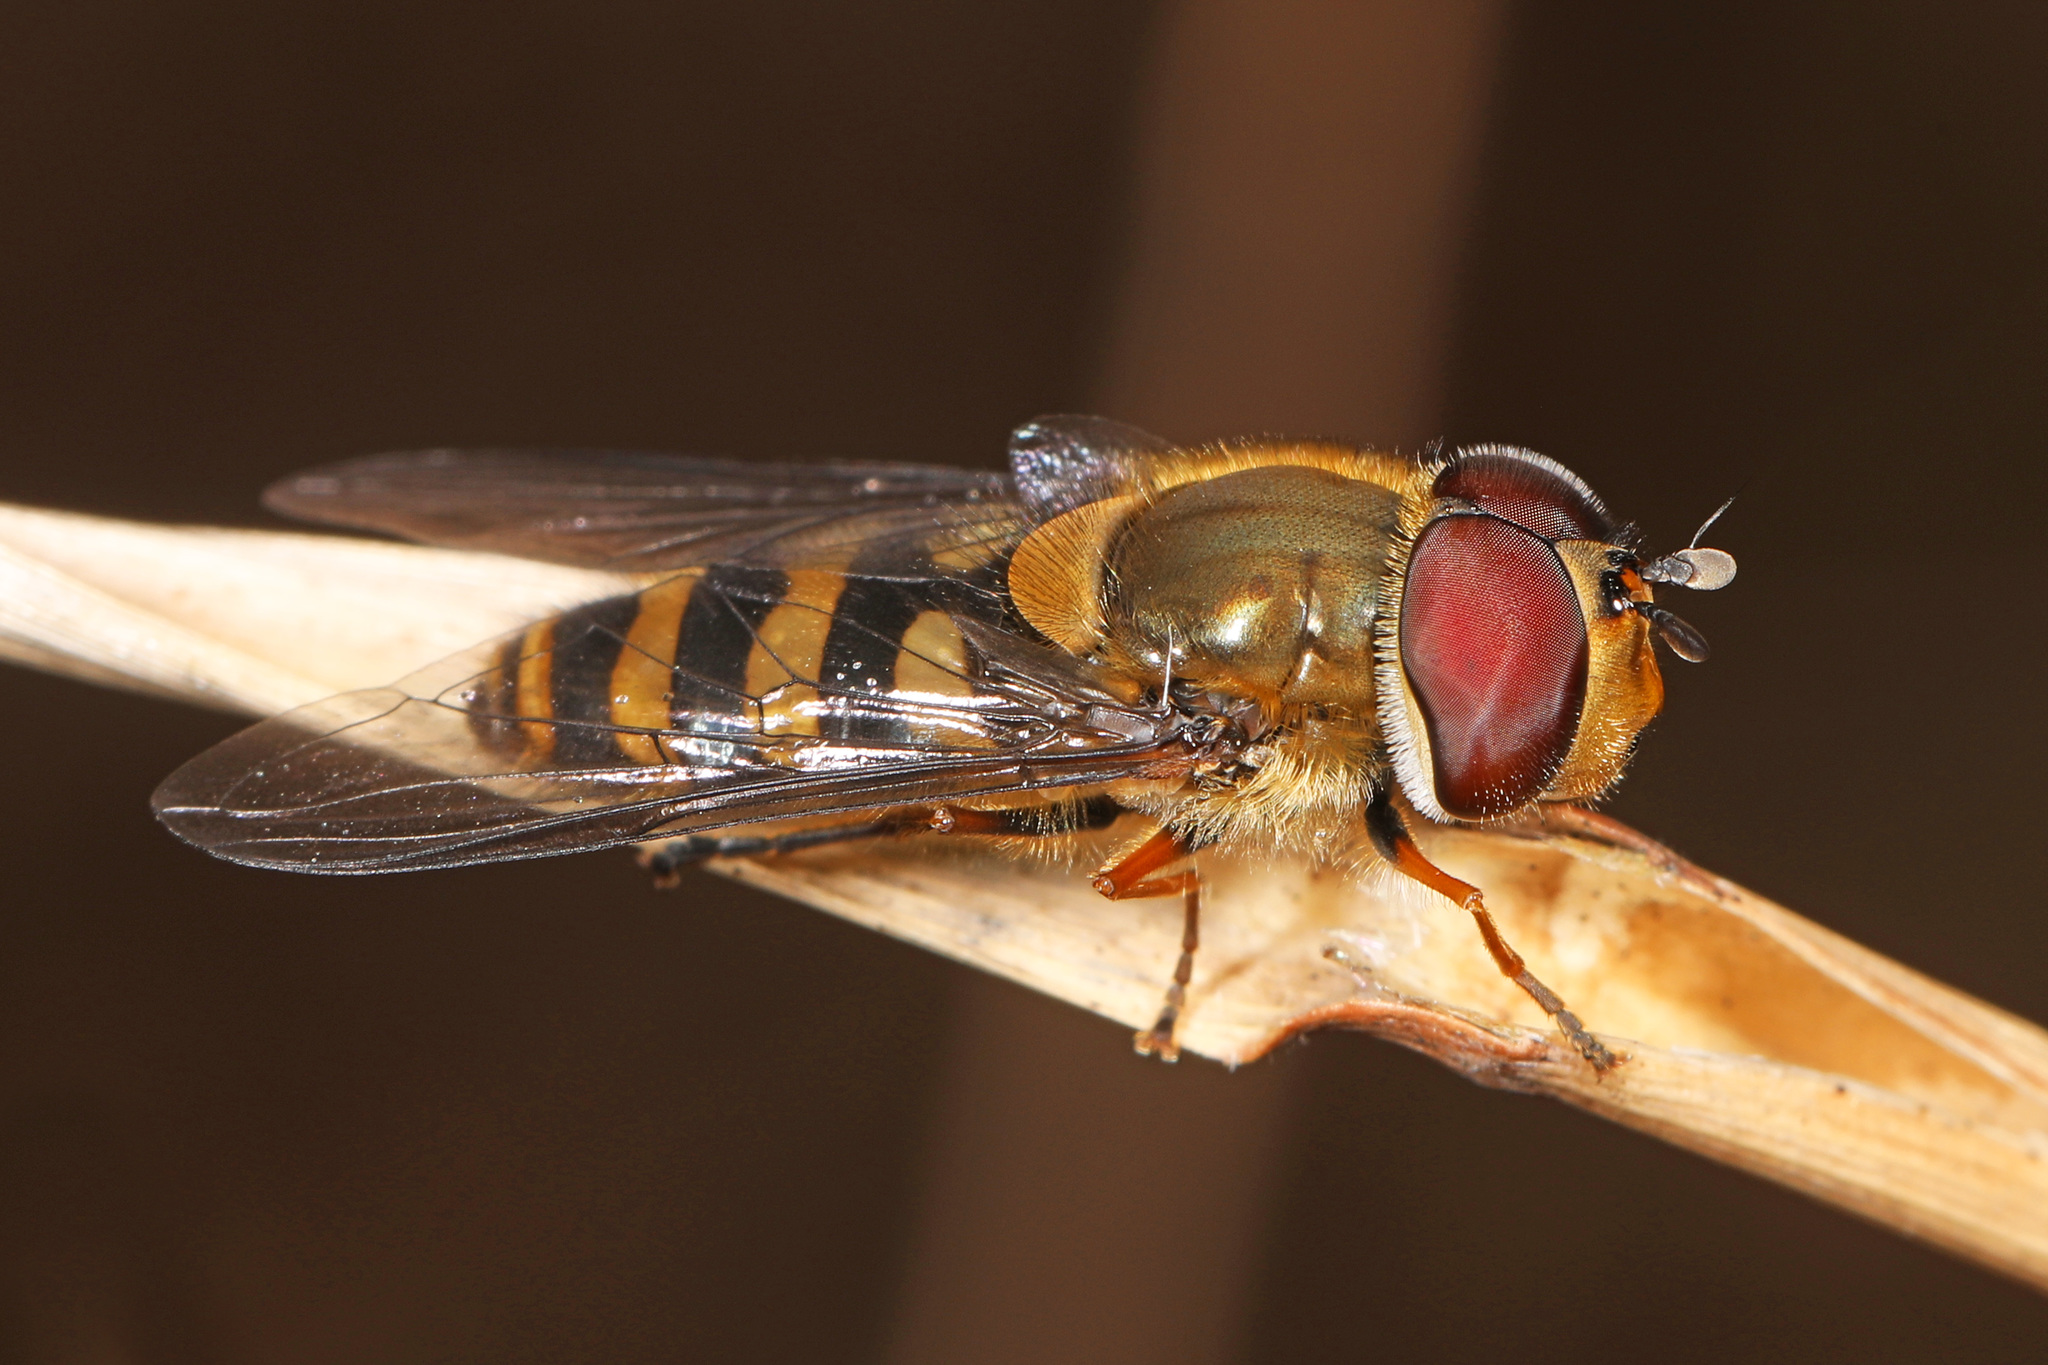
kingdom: Animalia
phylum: Arthropoda
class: Insecta
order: Diptera
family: Syrphidae
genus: Syrphus
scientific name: Syrphus torvus
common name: Hairy-eyed flower fly
